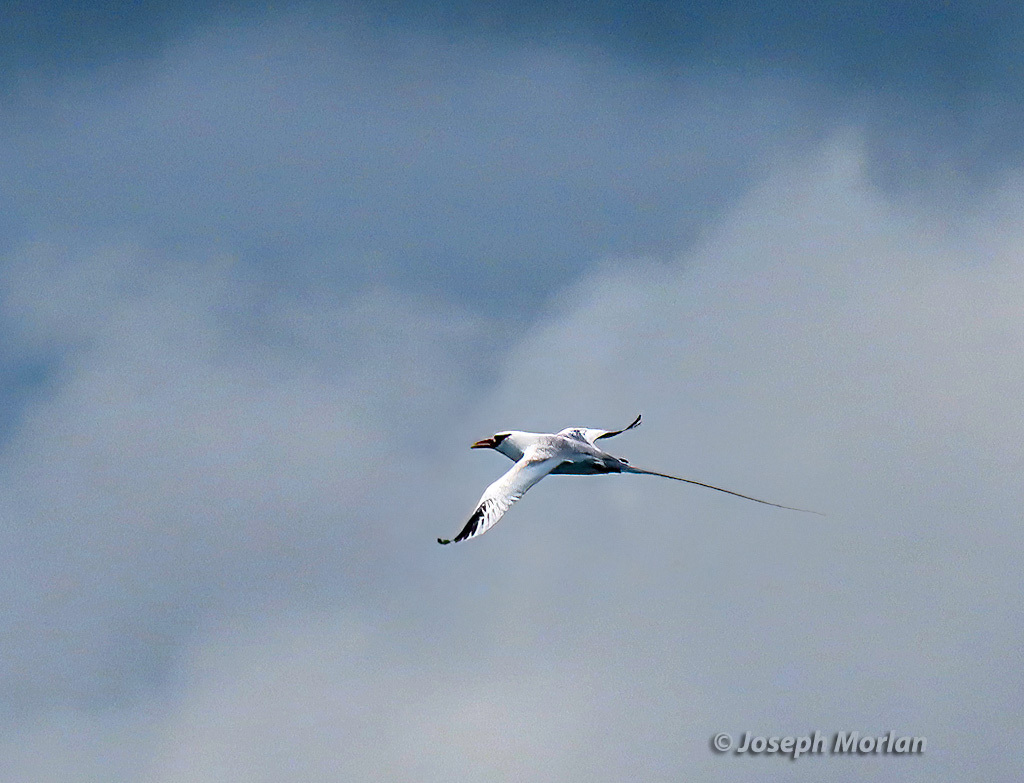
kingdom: Animalia
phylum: Chordata
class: Aves
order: Phaethontiformes
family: Phaethontidae
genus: Phaethon
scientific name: Phaethon aethereus
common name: Red-billed tropicbird
